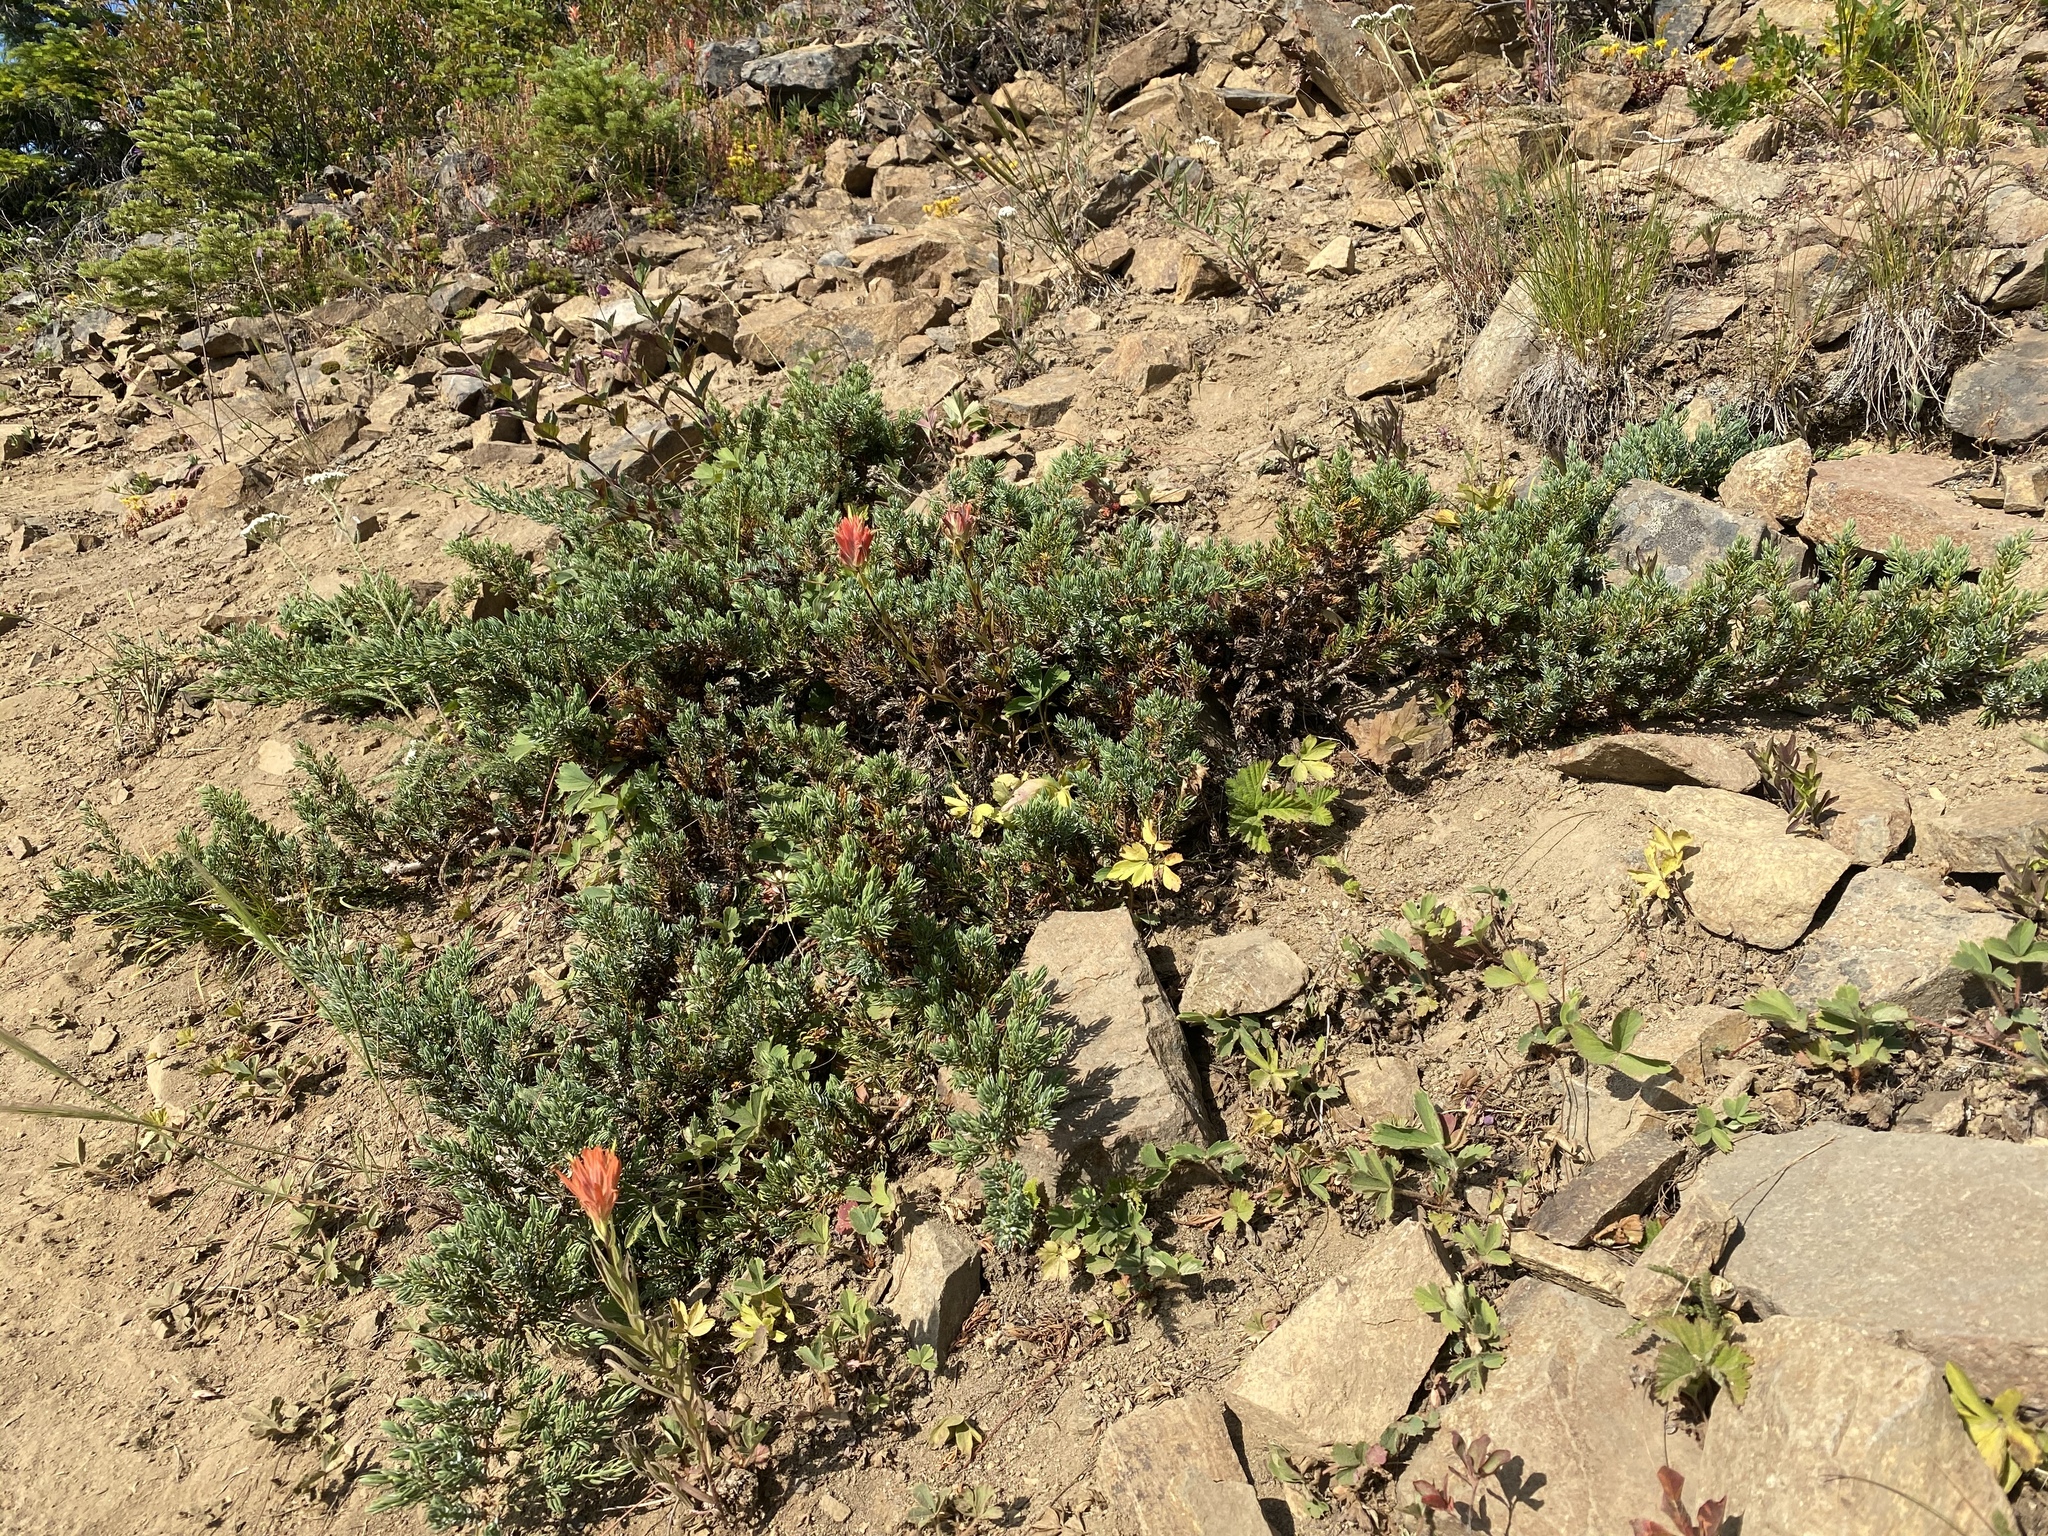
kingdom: Plantae
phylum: Tracheophyta
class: Pinopsida
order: Pinales
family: Cupressaceae
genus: Juniperus
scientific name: Juniperus communis
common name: Common juniper
